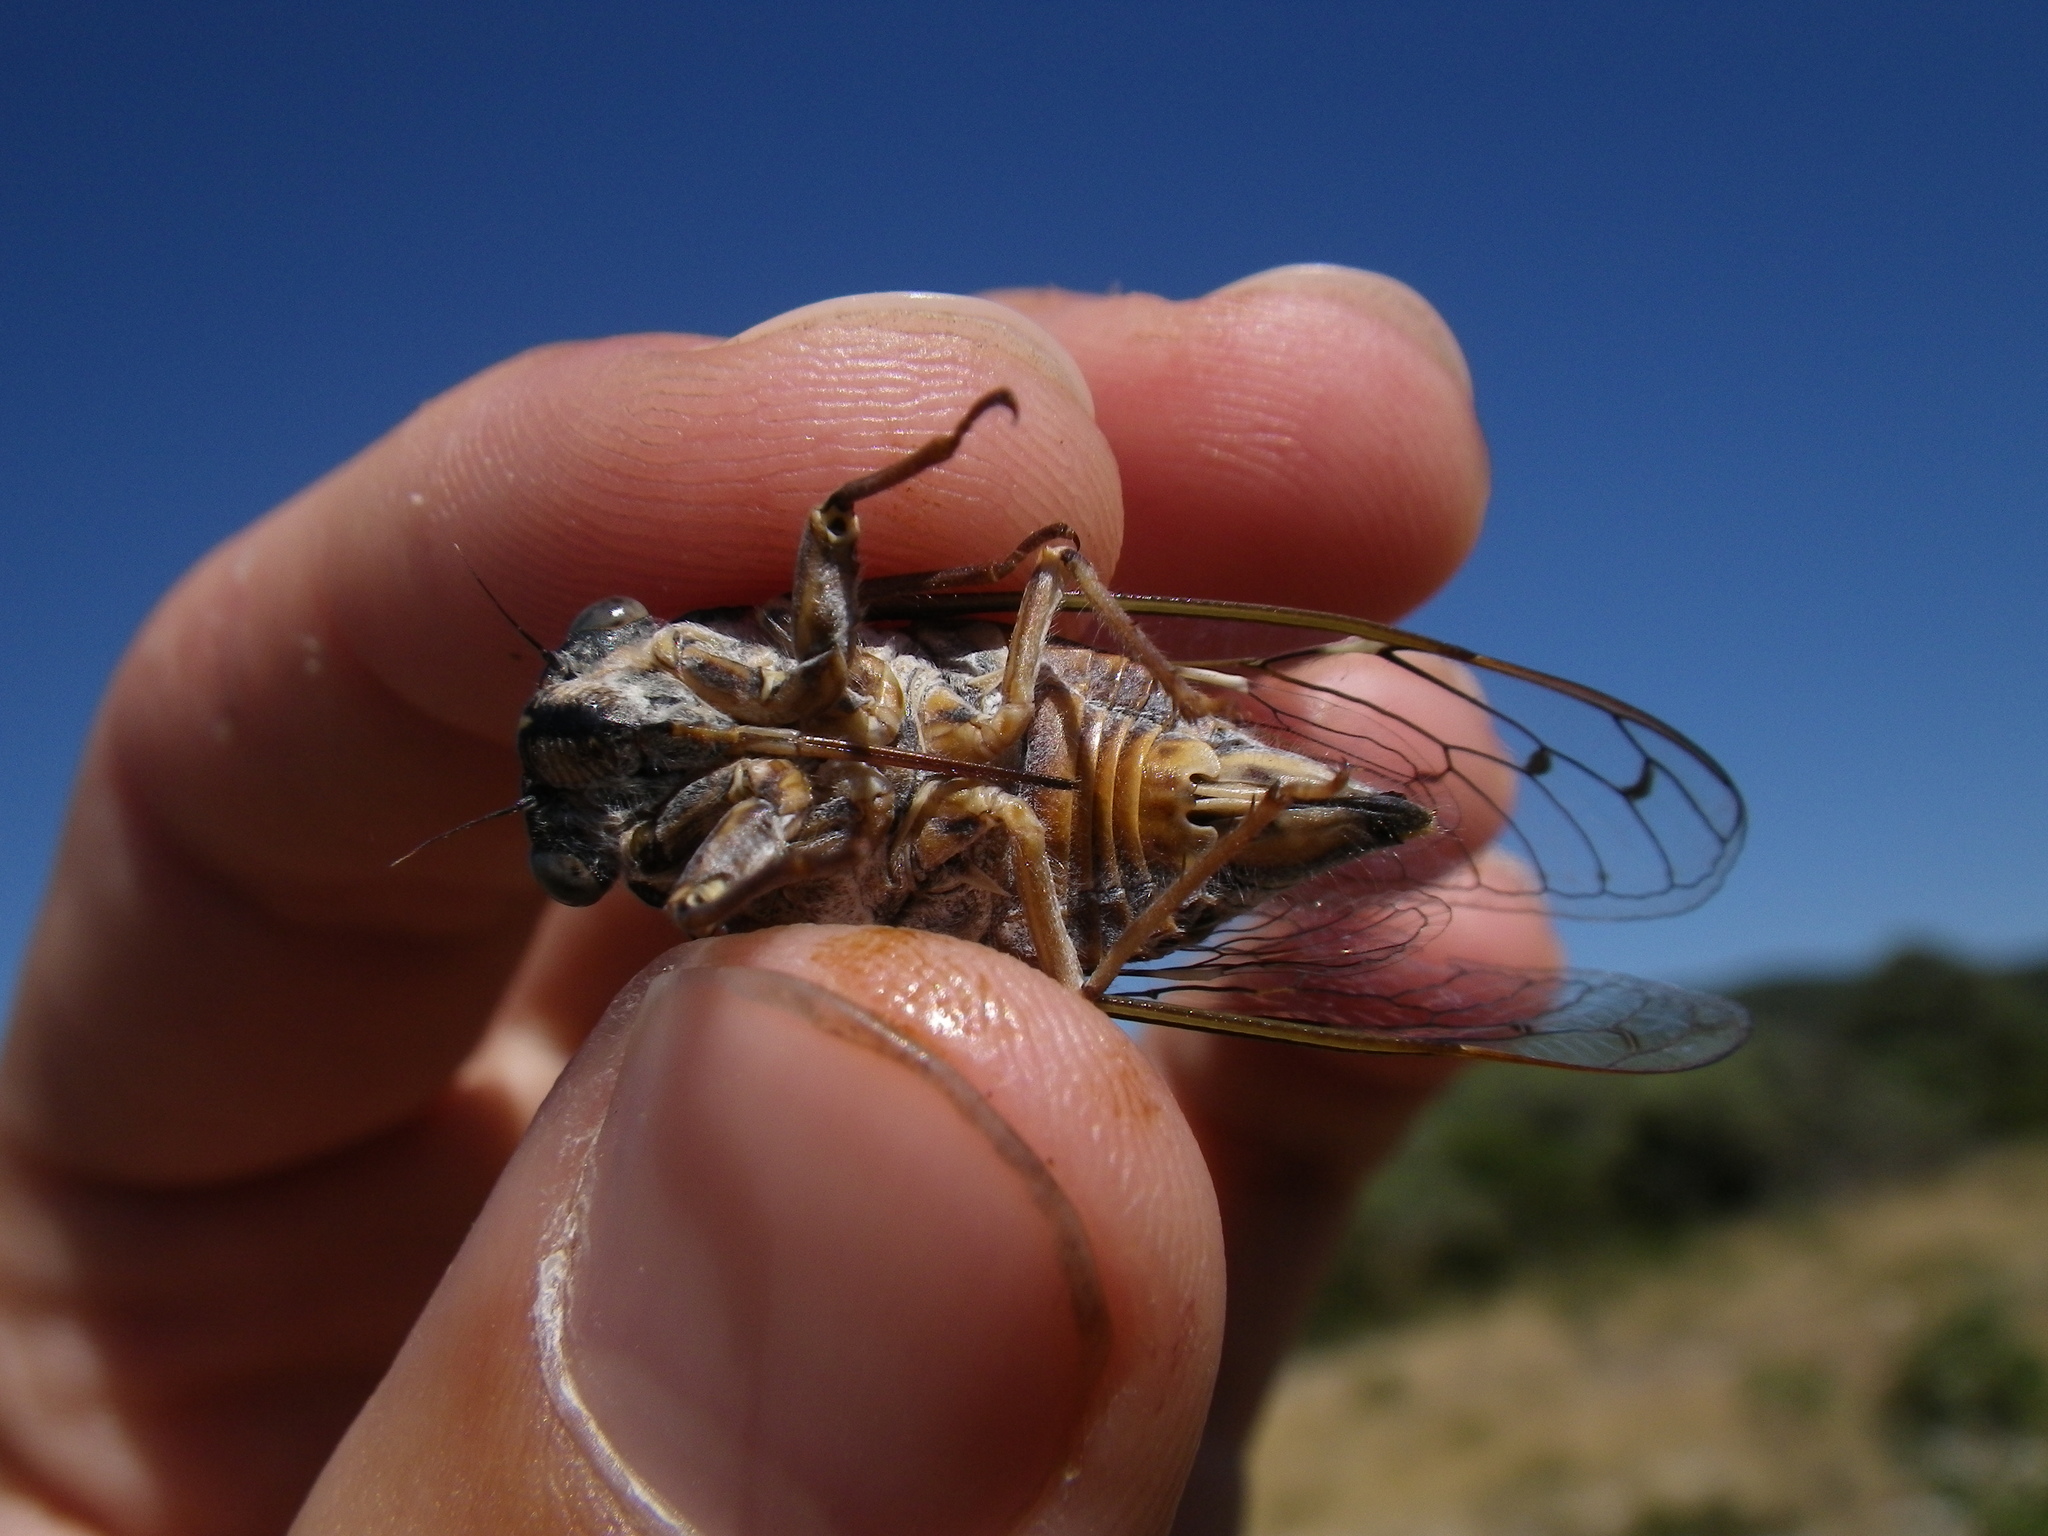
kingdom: Animalia
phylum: Arthropoda
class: Insecta
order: Hemiptera
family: Cicadidae
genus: Cicada
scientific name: Cicada orni
